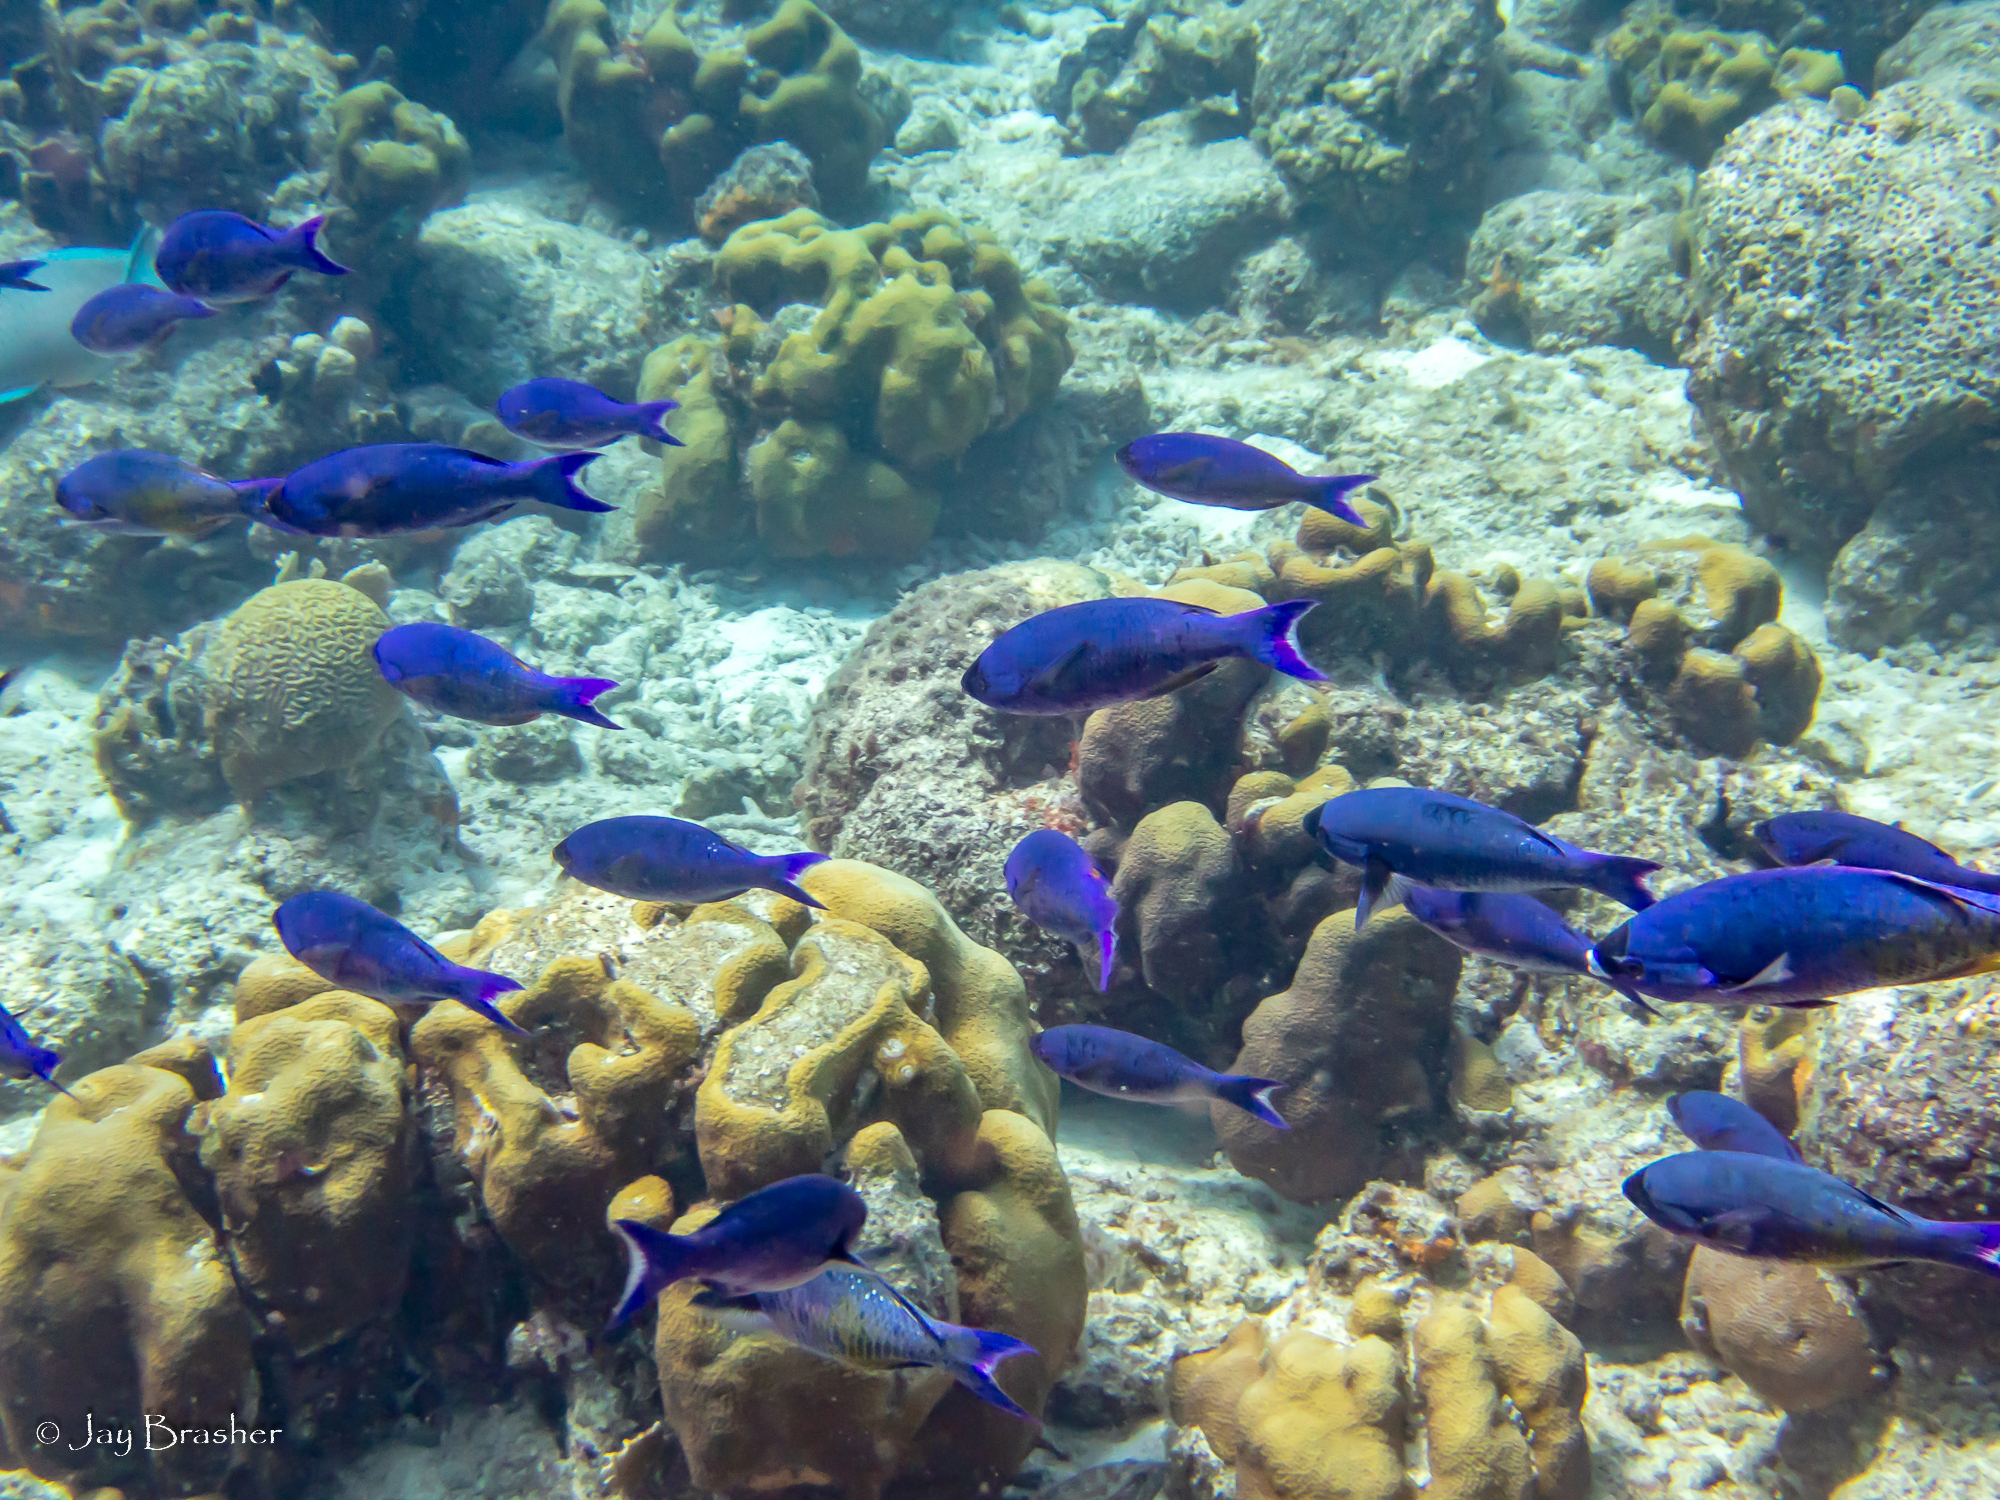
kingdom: Animalia
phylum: Chordata
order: Perciformes
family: Labridae
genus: Bodianus
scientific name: Bodianus
